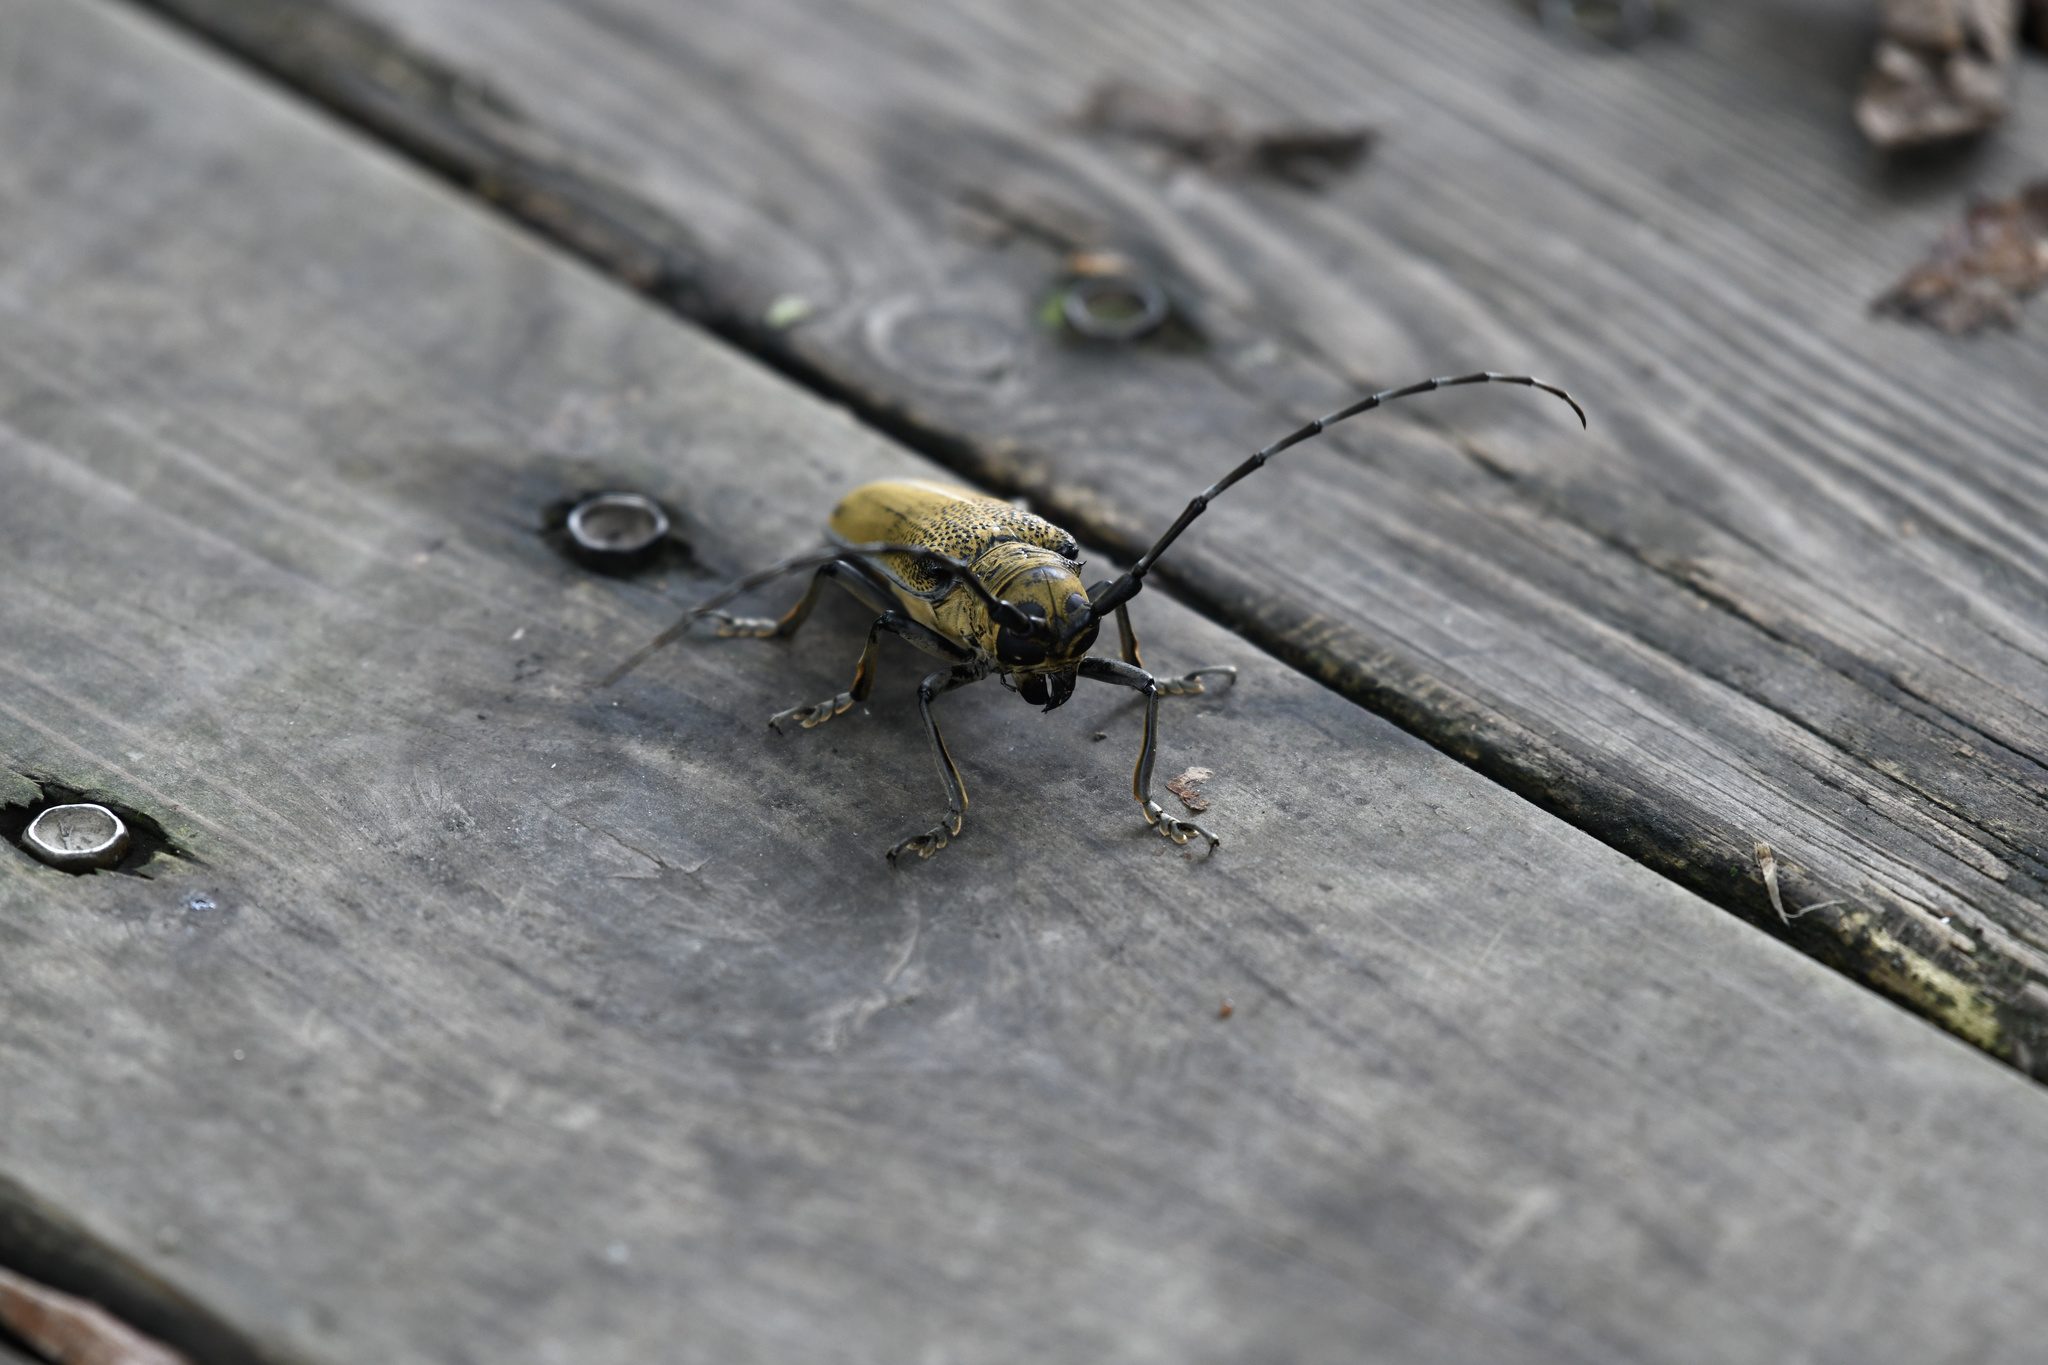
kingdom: Animalia
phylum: Arthropoda
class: Insecta
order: Coleoptera
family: Cerambycidae
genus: Apriona
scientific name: Apriona rugicollis
